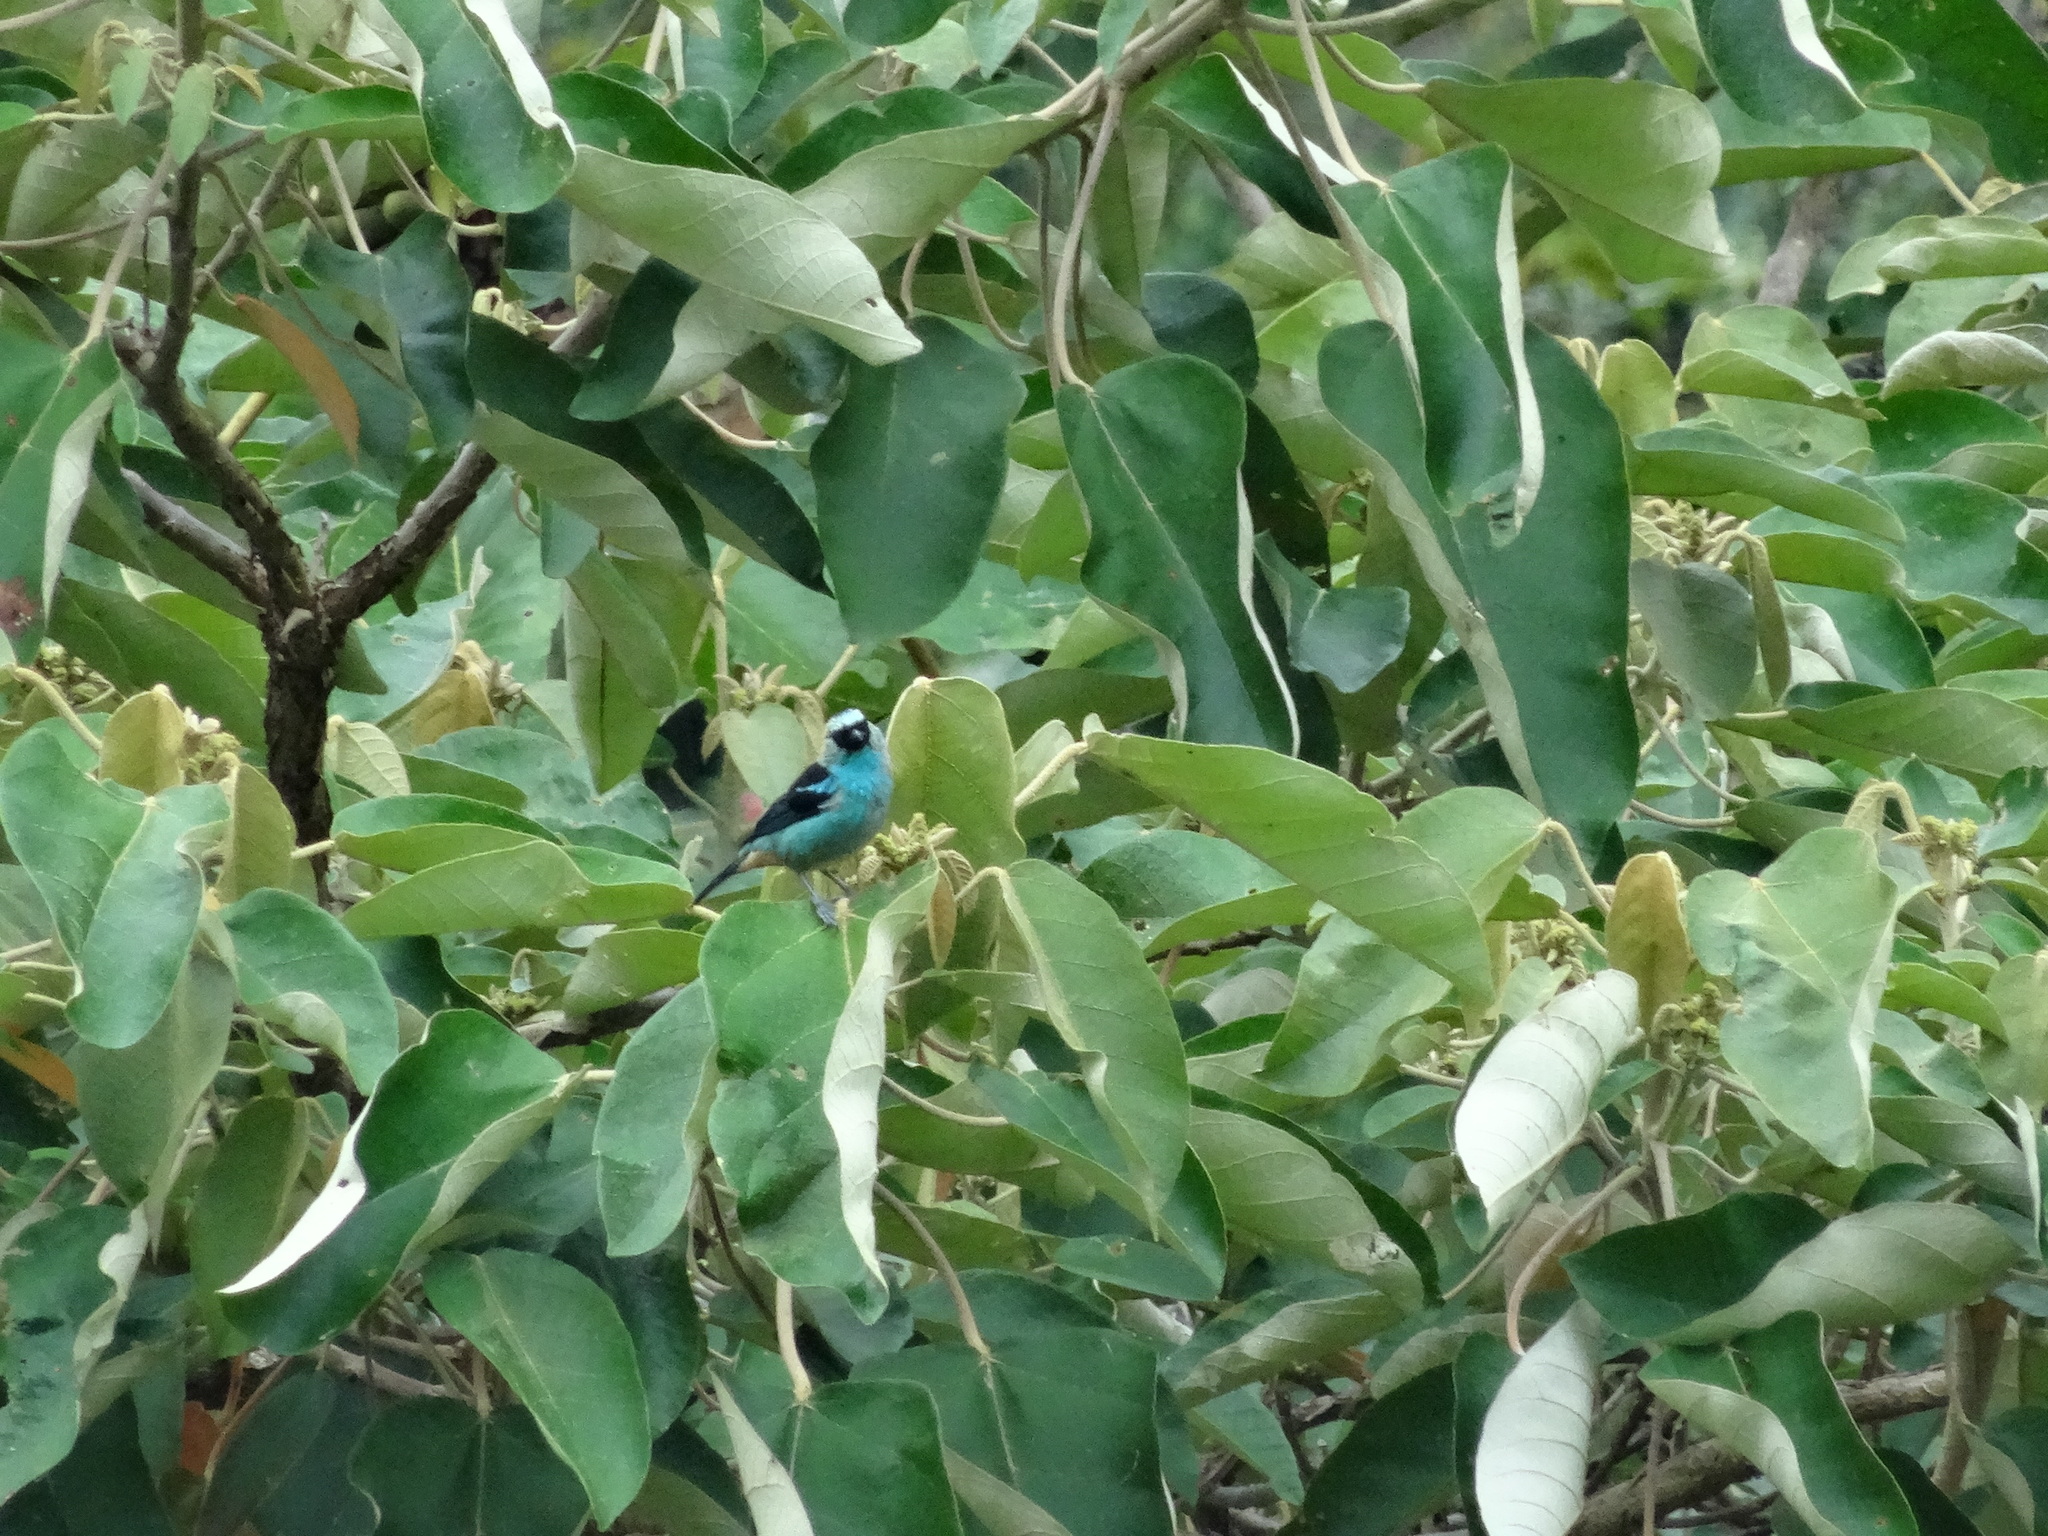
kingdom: Animalia
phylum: Chordata
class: Aves
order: Passeriformes
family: Thraupidae
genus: Tangara
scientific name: Tangara labradorides
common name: Metallic-green tanager
